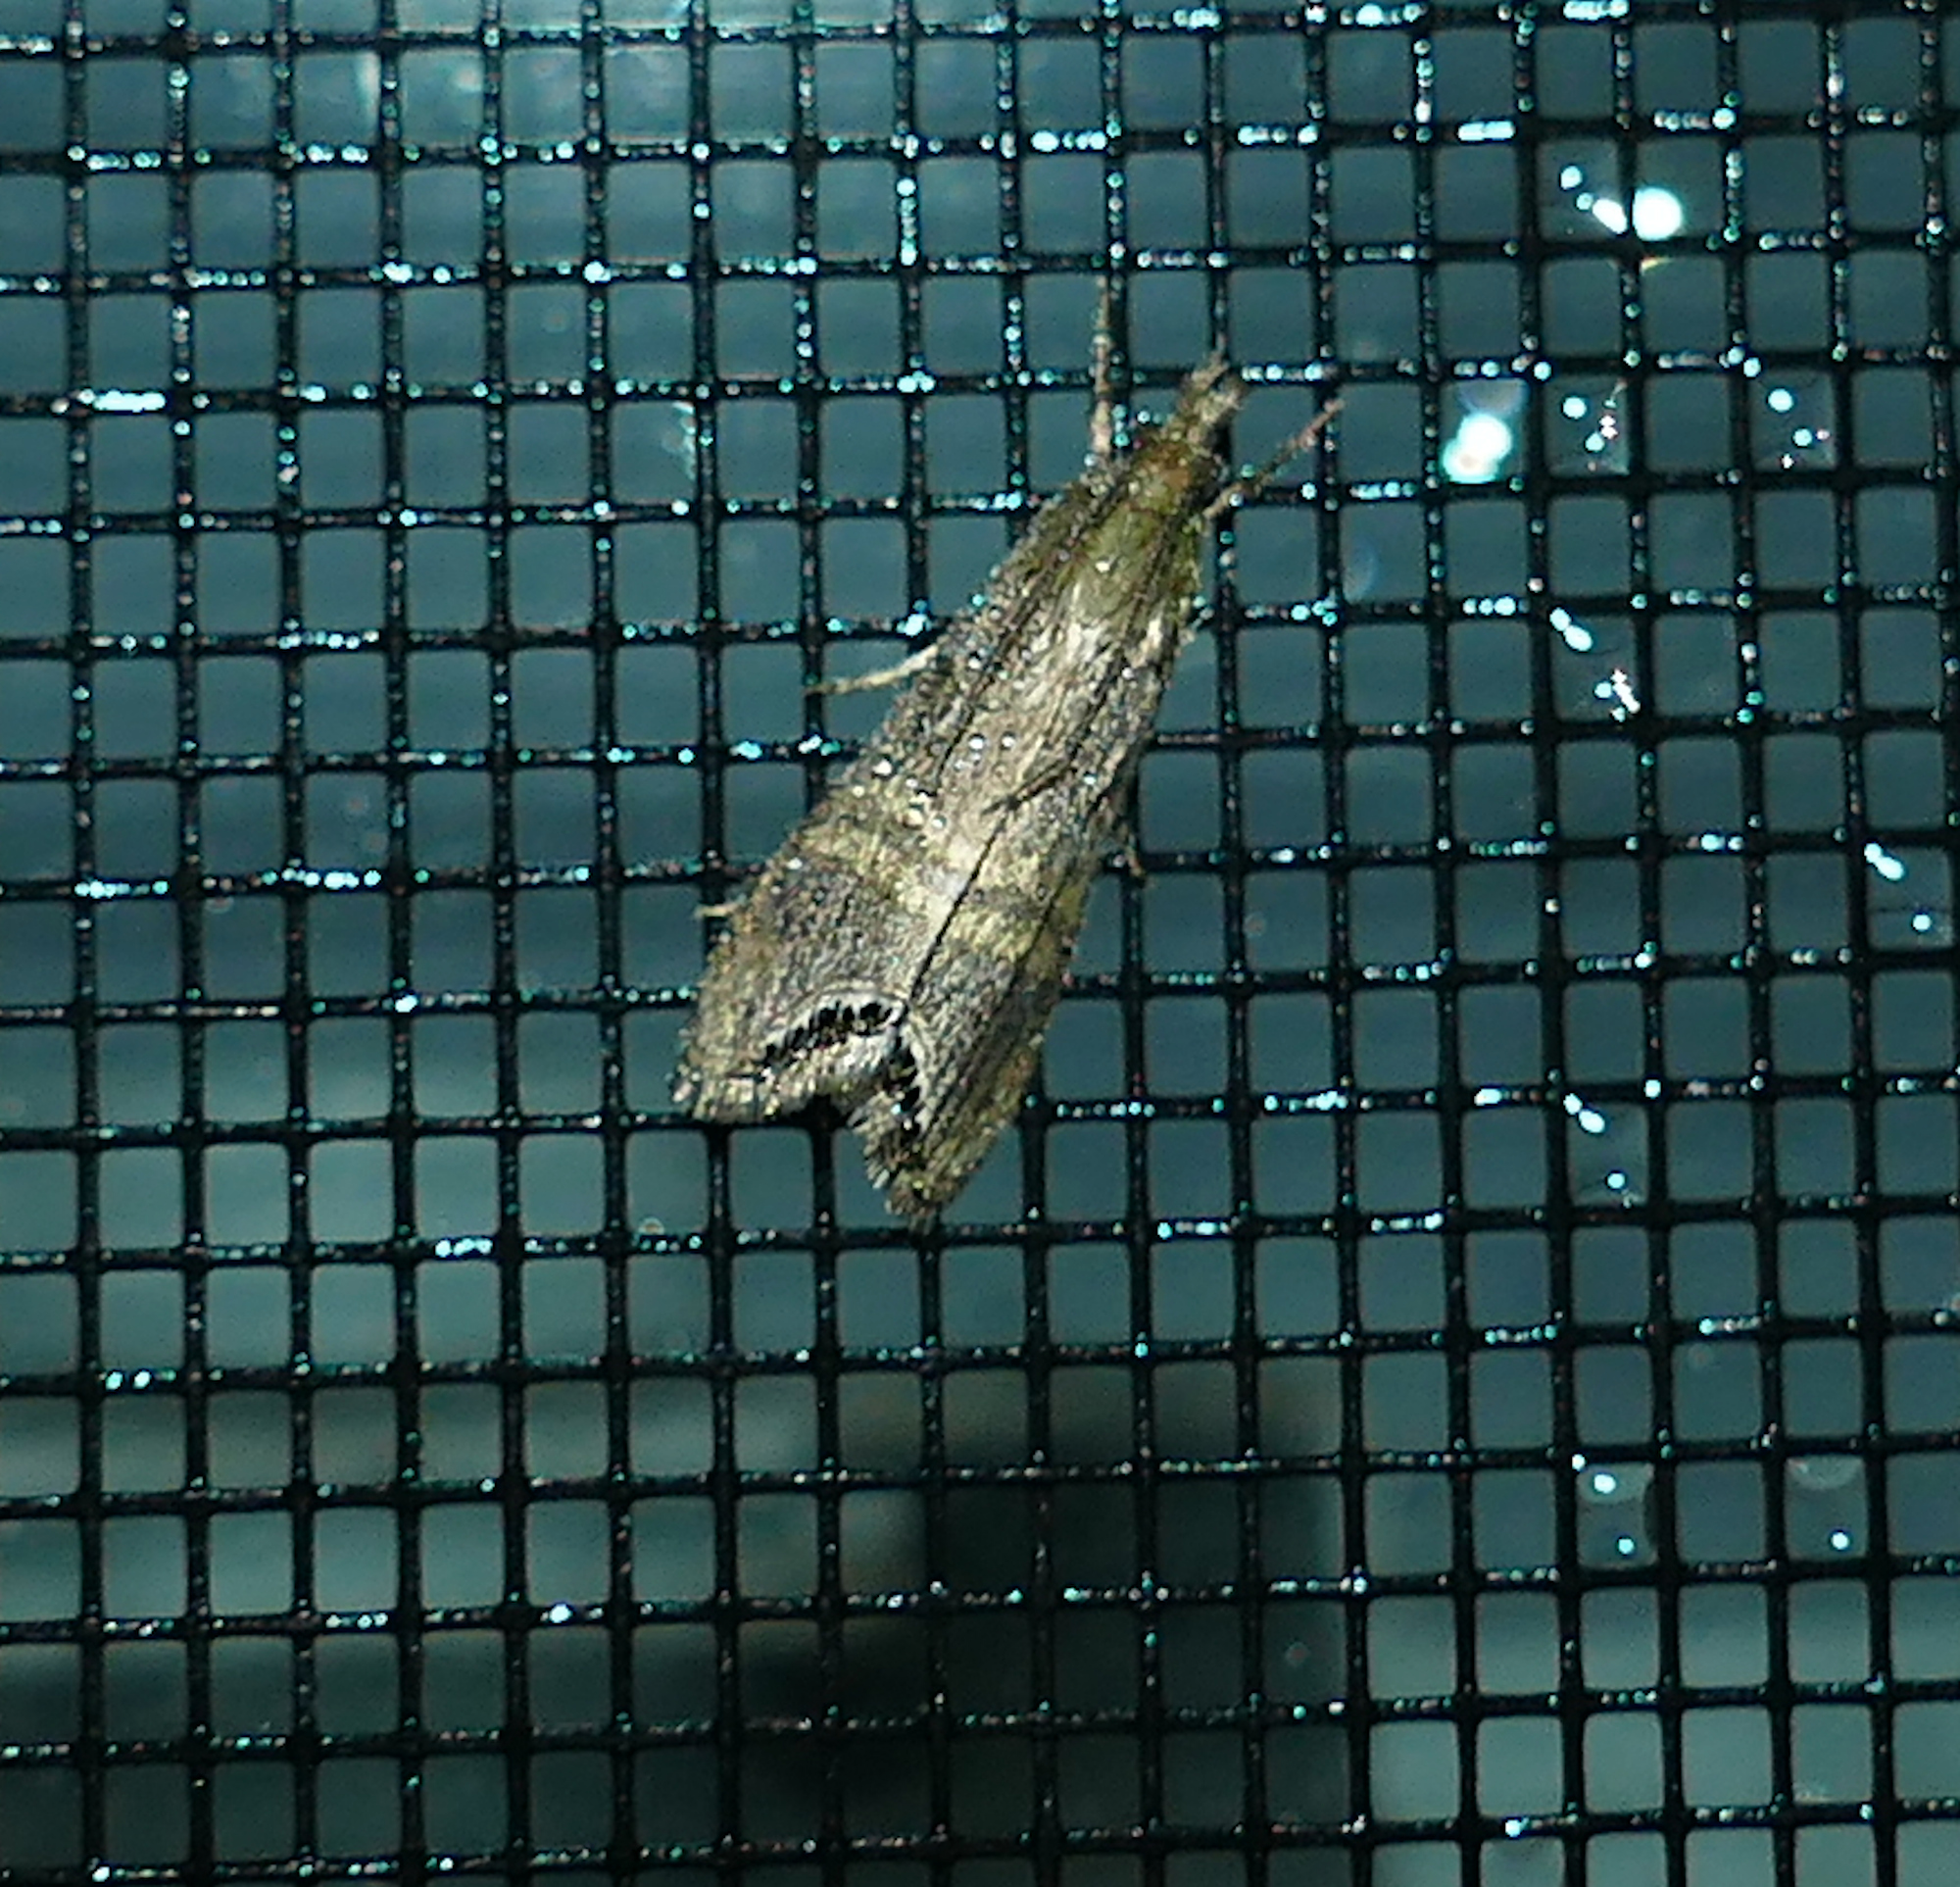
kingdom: Animalia
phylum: Arthropoda
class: Insecta
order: Lepidoptera
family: Crambidae
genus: Euchromius
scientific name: Euchromius ocellea
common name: Necklace veneer moth
